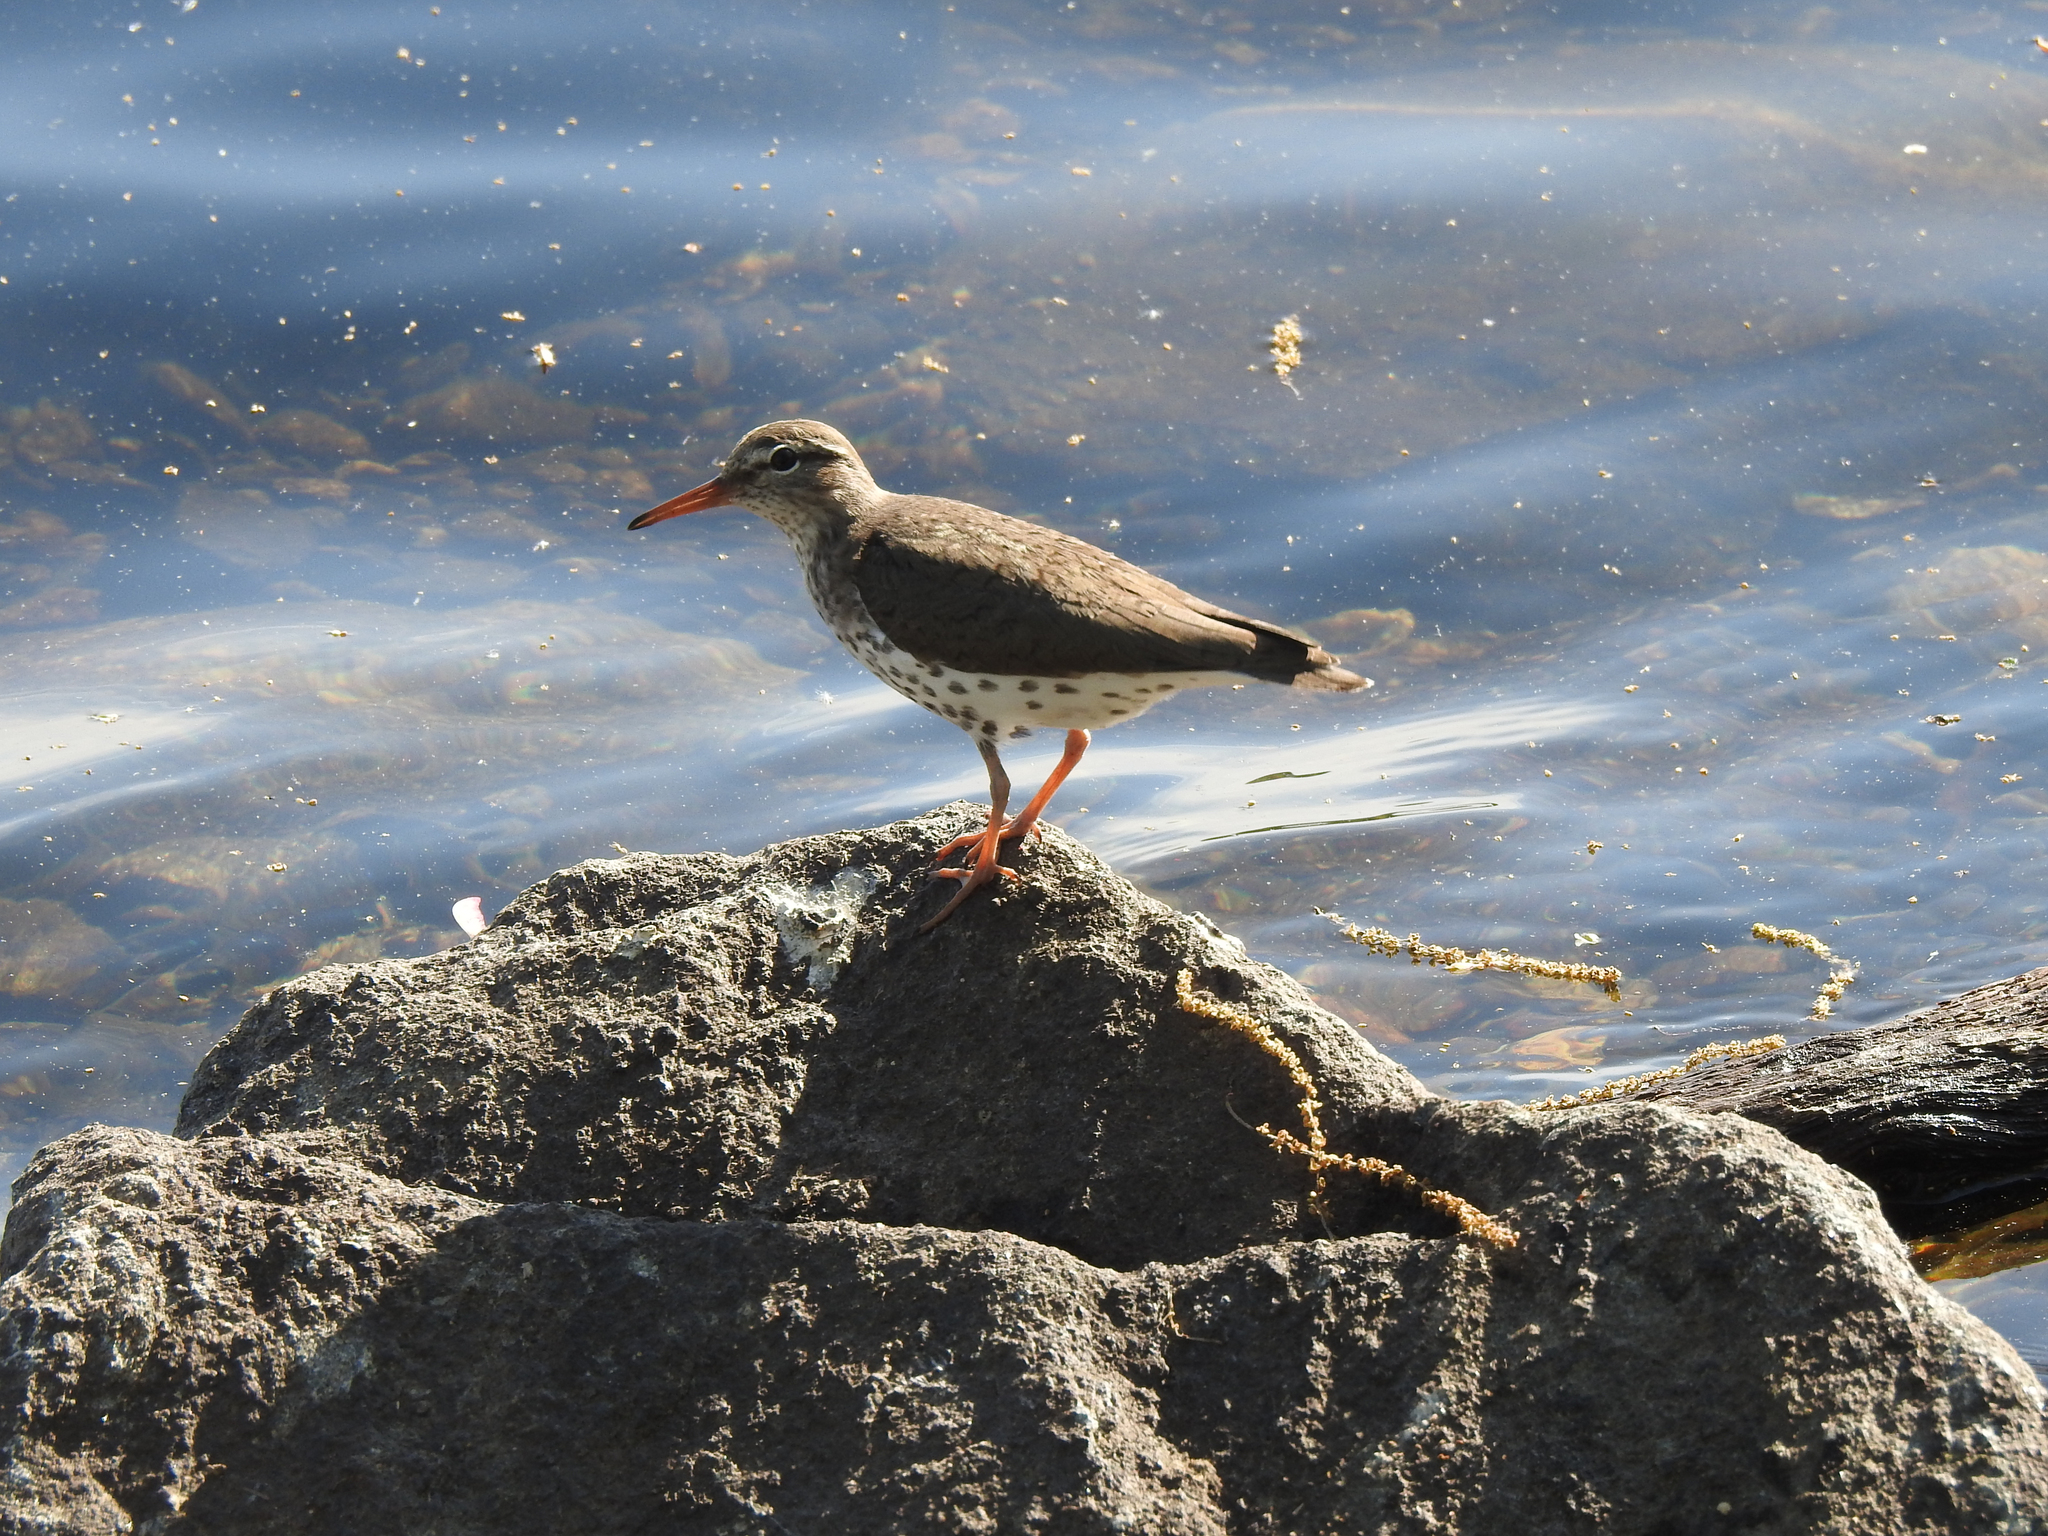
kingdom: Animalia
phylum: Chordata
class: Aves
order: Charadriiformes
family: Scolopacidae
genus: Actitis
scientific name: Actitis macularius
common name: Spotted sandpiper
